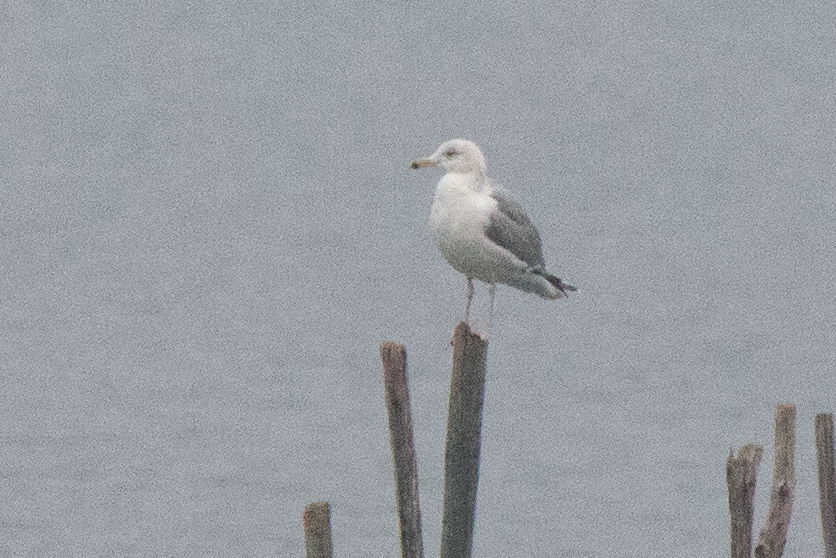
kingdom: Animalia
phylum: Chordata
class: Aves
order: Charadriiformes
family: Laridae
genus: Larus
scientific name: Larus cachinnans
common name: Caspian gull
